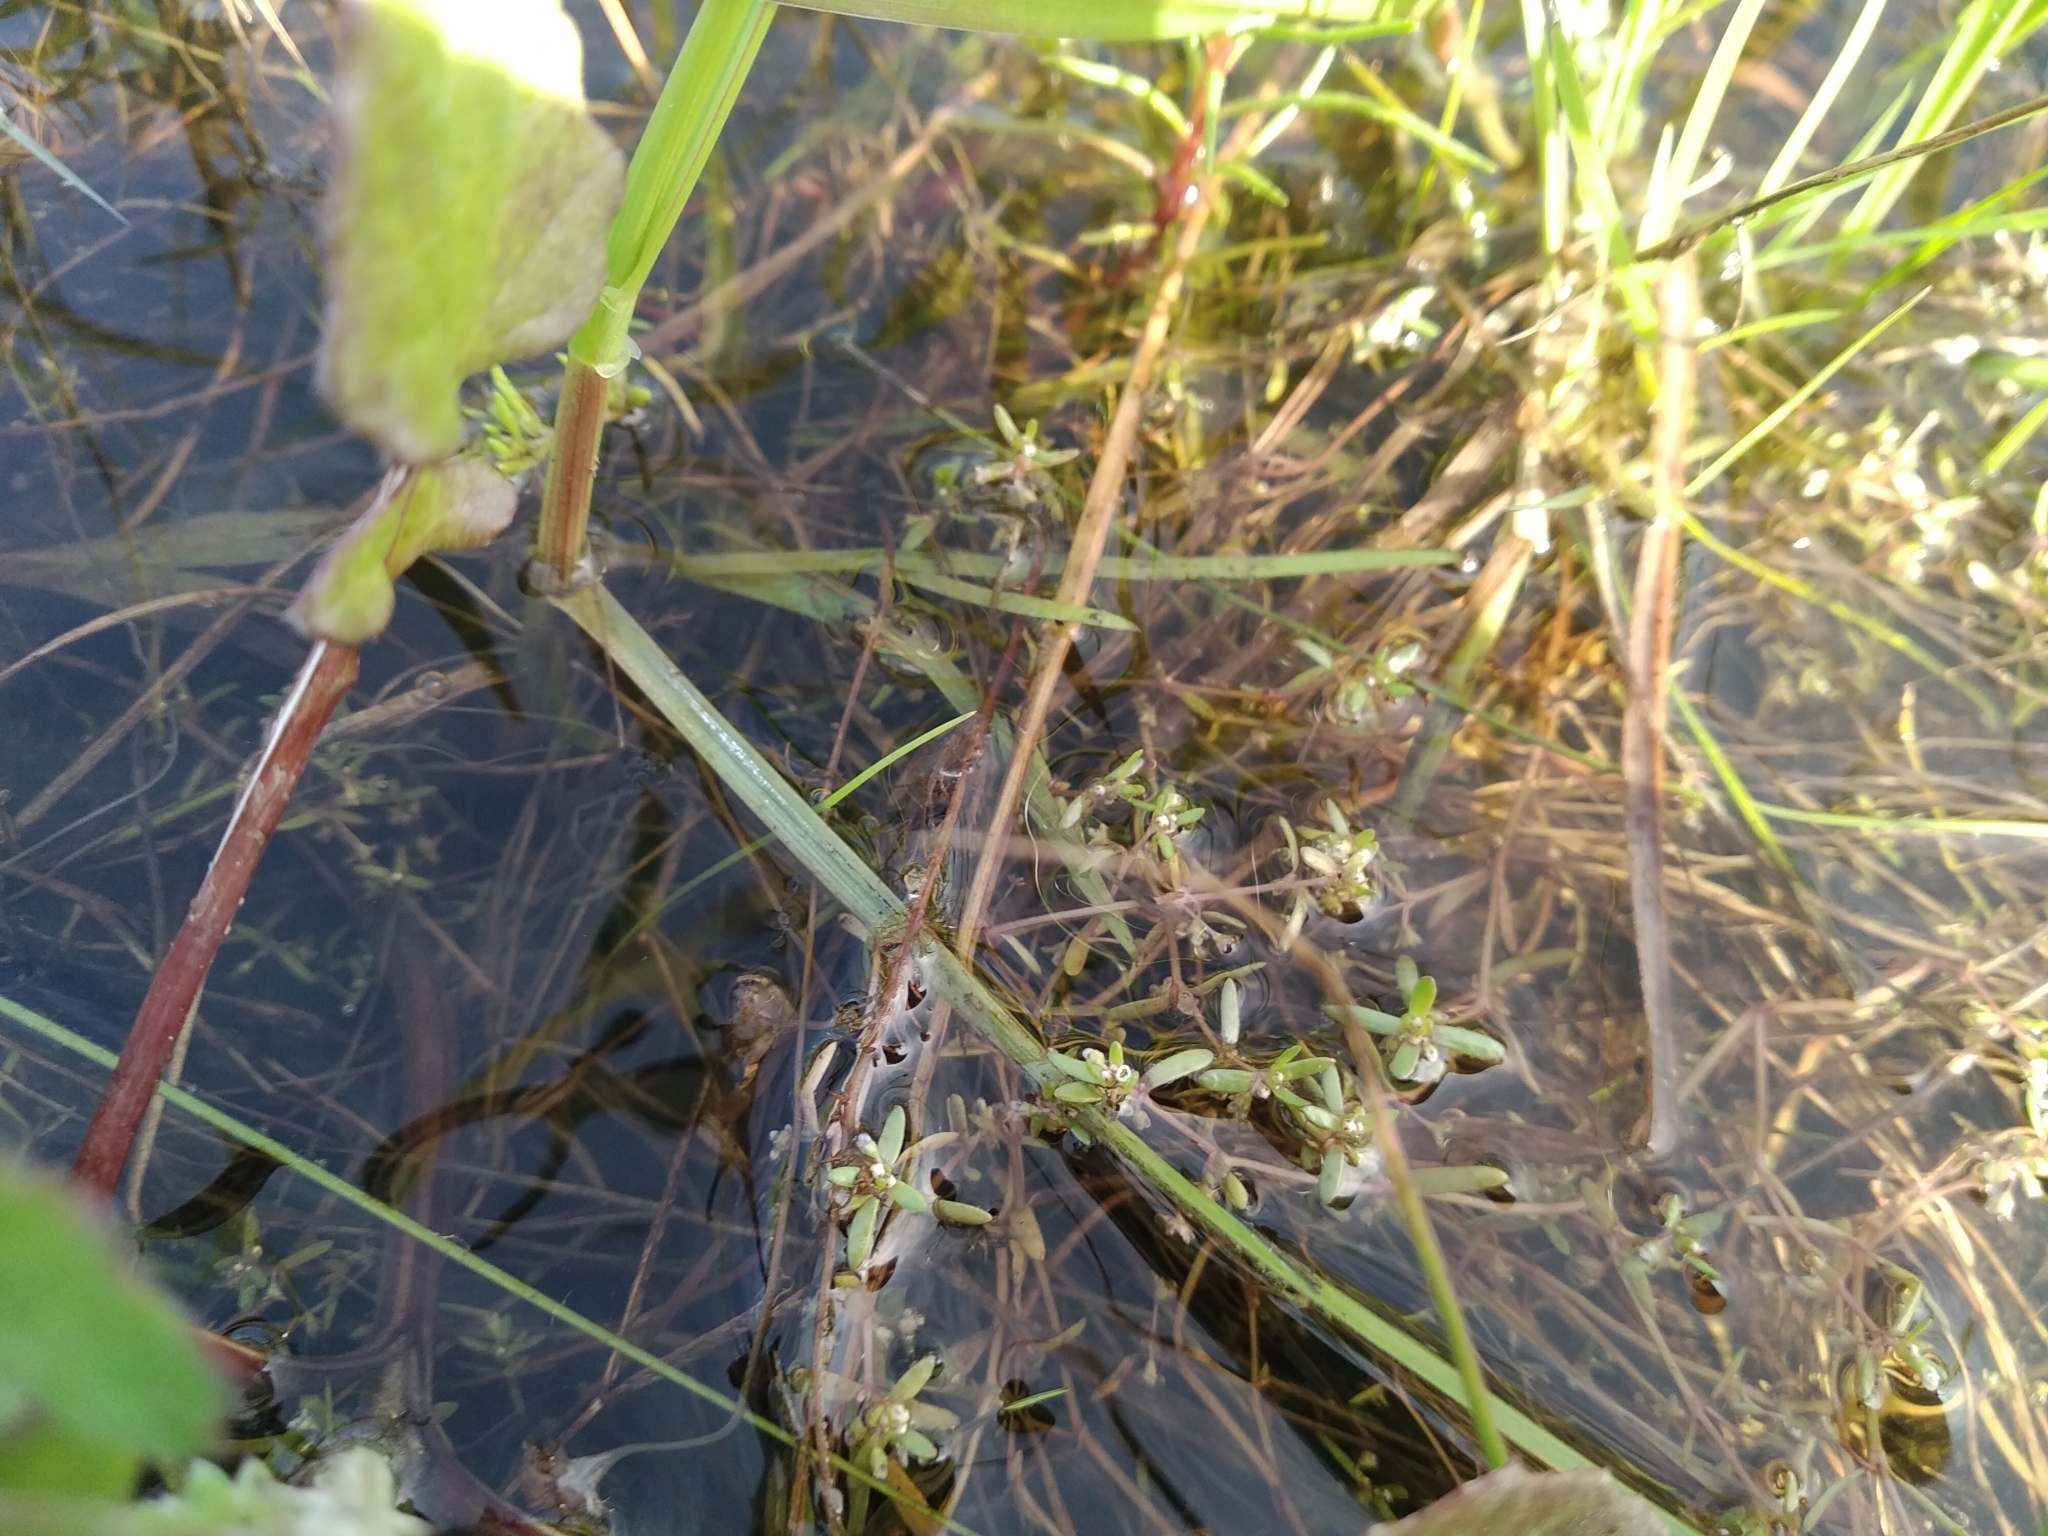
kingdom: Plantae
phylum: Tracheophyta
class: Magnoliopsida
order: Saxifragales
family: Crassulaceae
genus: Crassula
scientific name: Crassula natans
